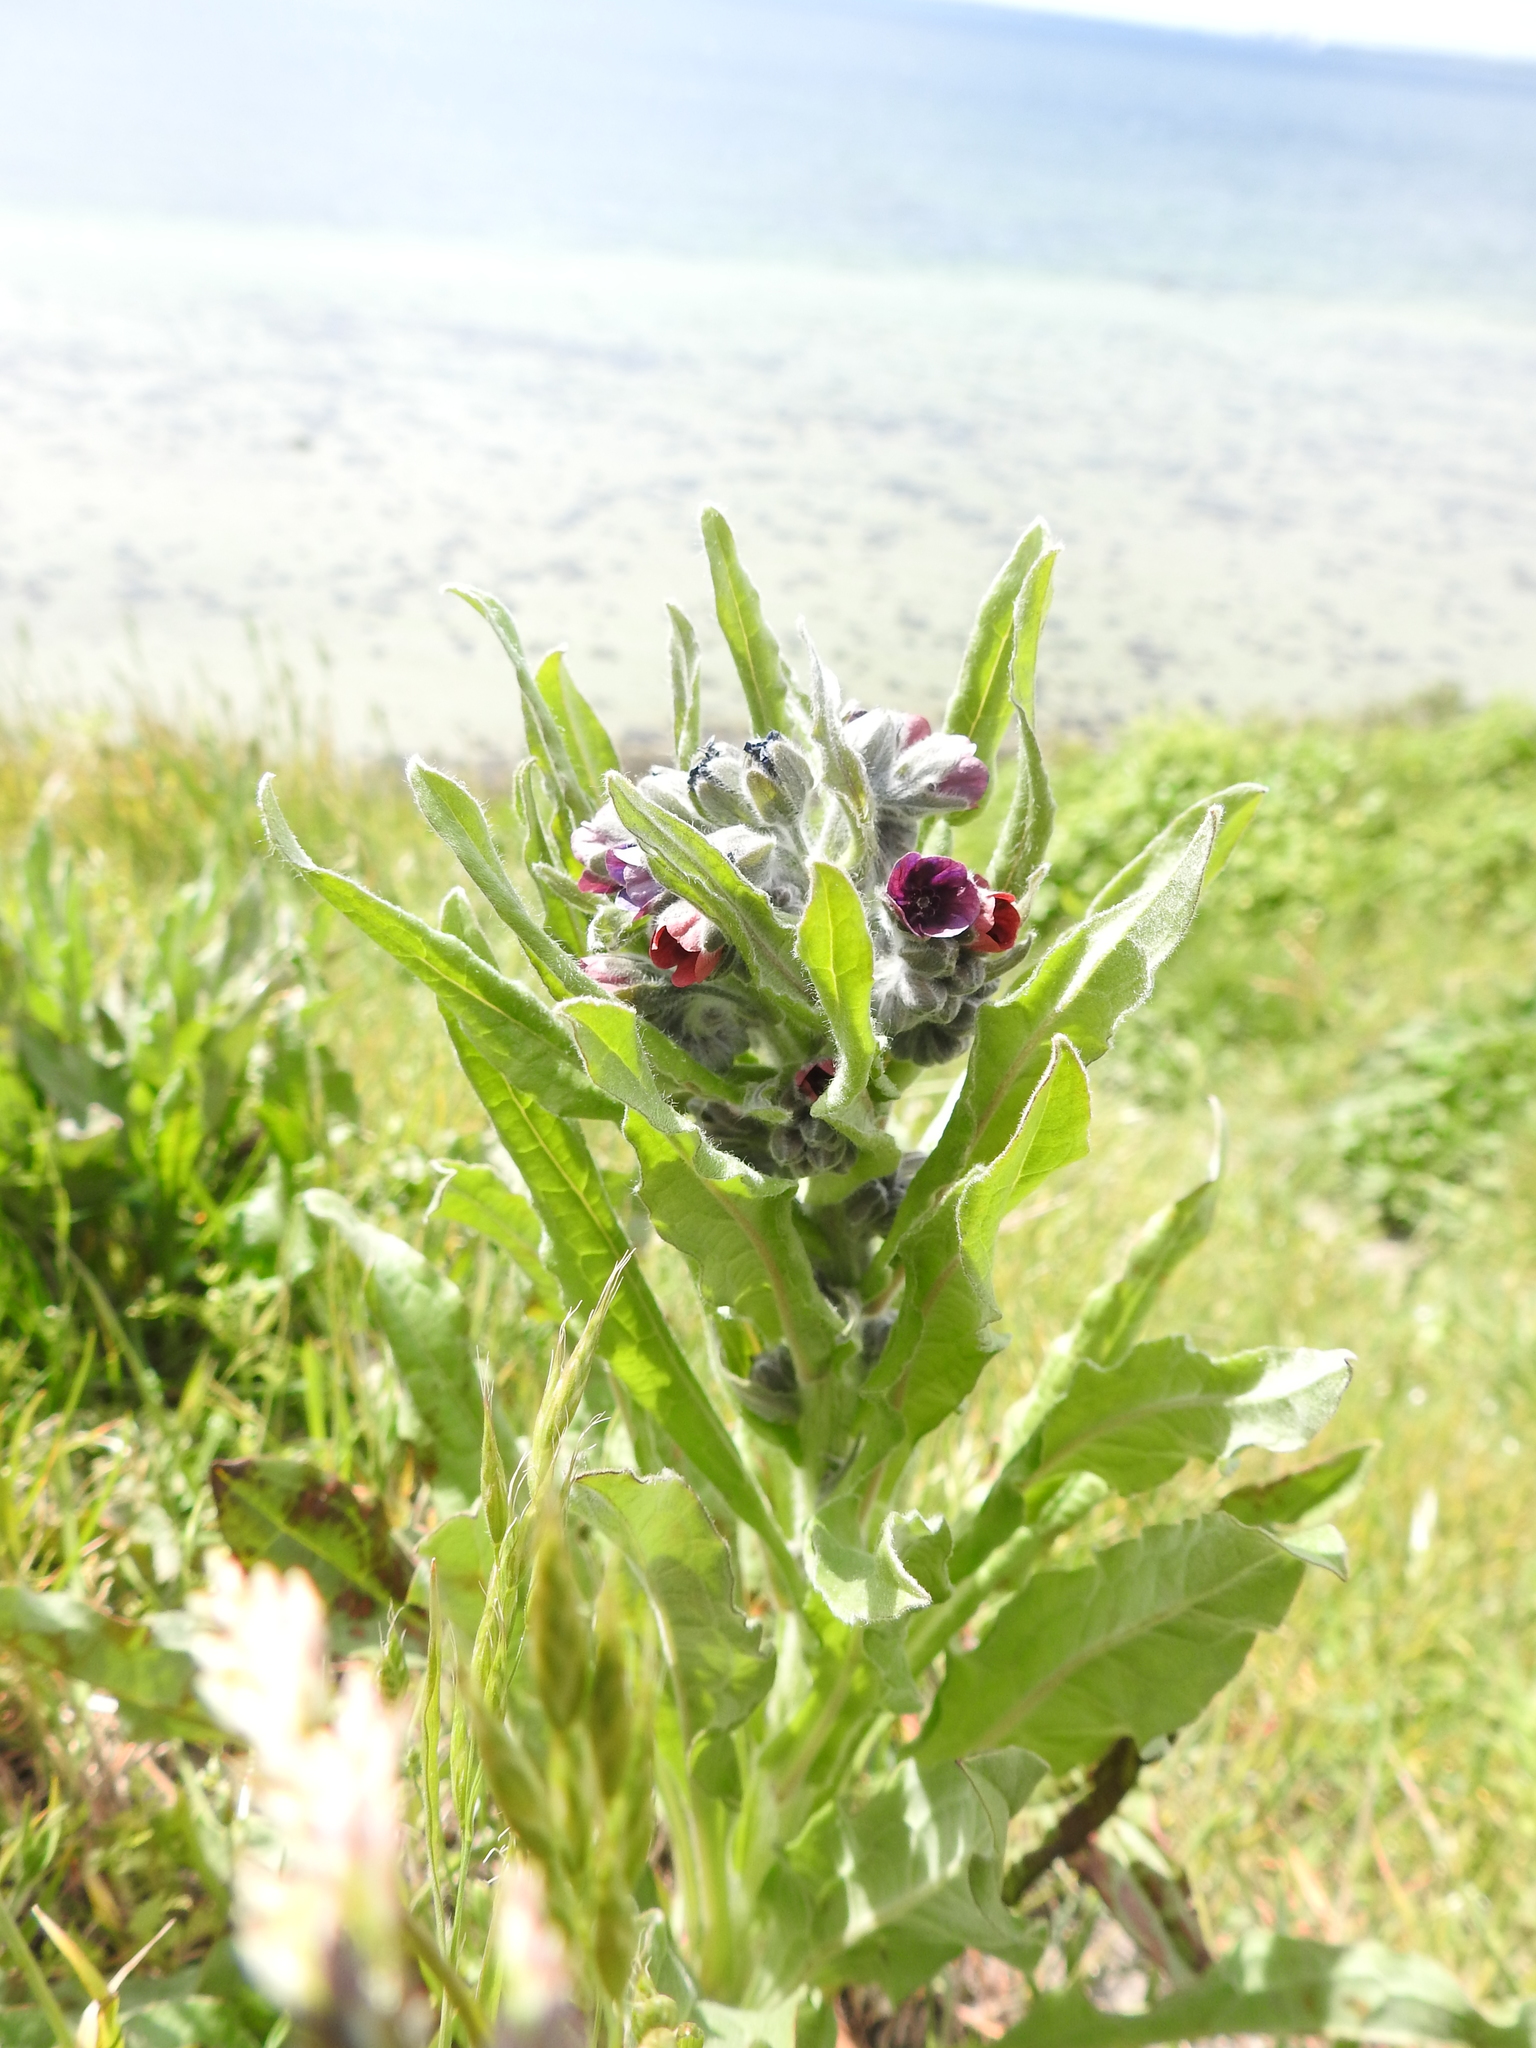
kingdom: Plantae
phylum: Tracheophyta
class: Magnoliopsida
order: Boraginales
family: Boraginaceae
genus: Cynoglossum
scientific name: Cynoglossum officinale
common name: Hound's-tongue
